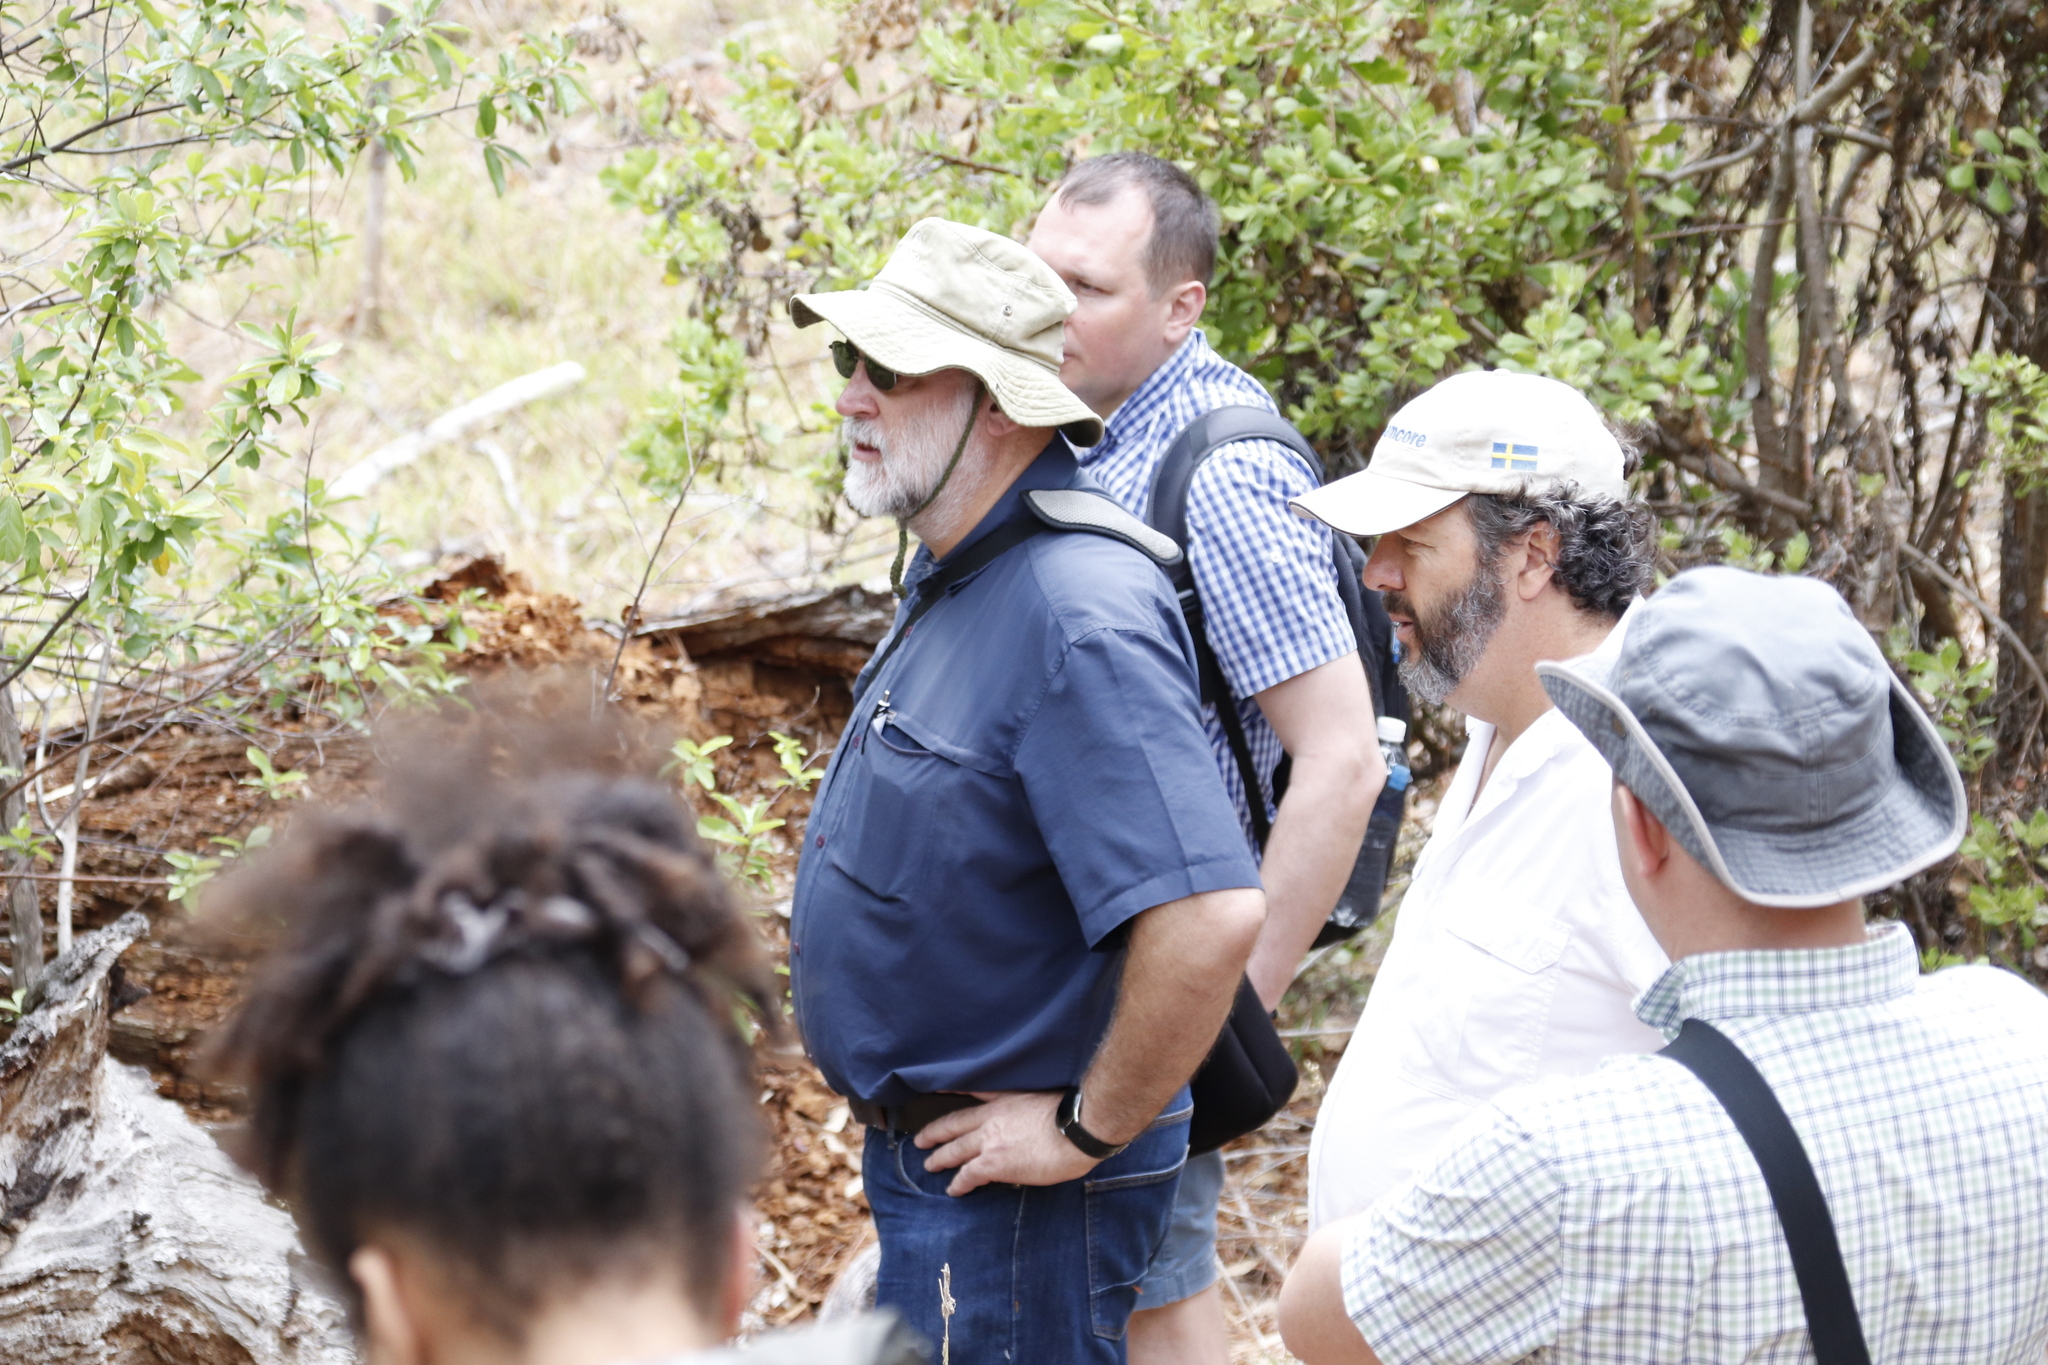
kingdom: Plantae
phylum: Tracheophyta
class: Magnoliopsida
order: Malpighiales
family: Achariaceae
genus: Kiggelaria
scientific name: Kiggelaria africana
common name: Wild peach
